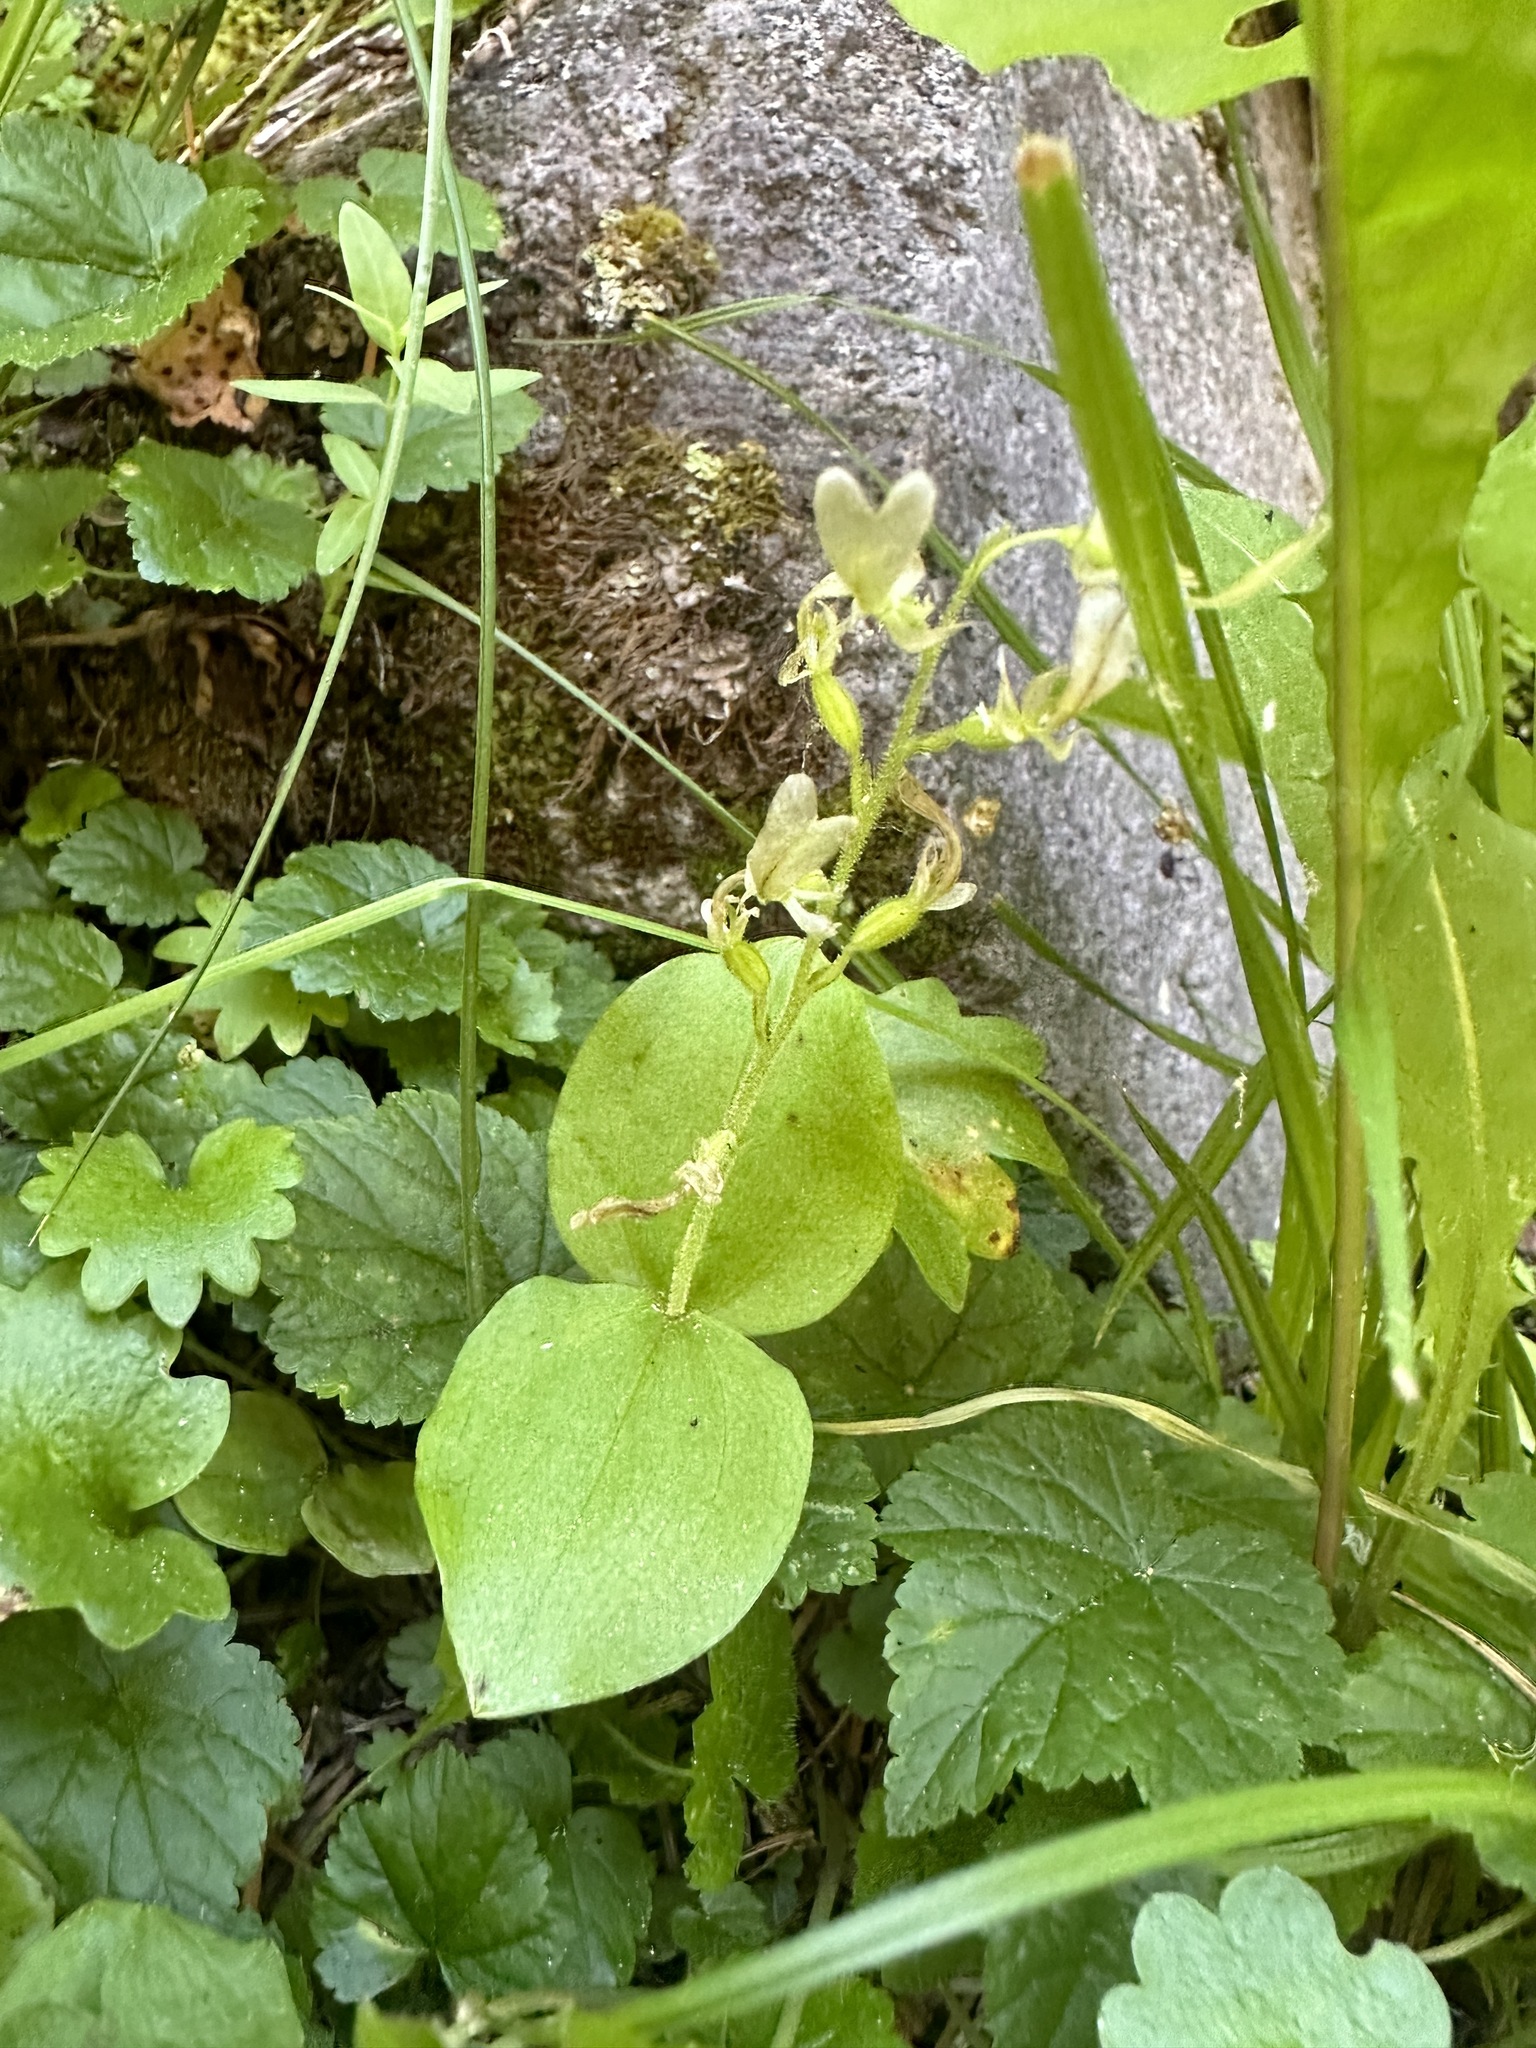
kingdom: Plantae
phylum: Tracheophyta
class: Liliopsida
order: Asparagales
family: Orchidaceae
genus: Neottia
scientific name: Neottia convallarioides
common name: Broadleaf twayblade
